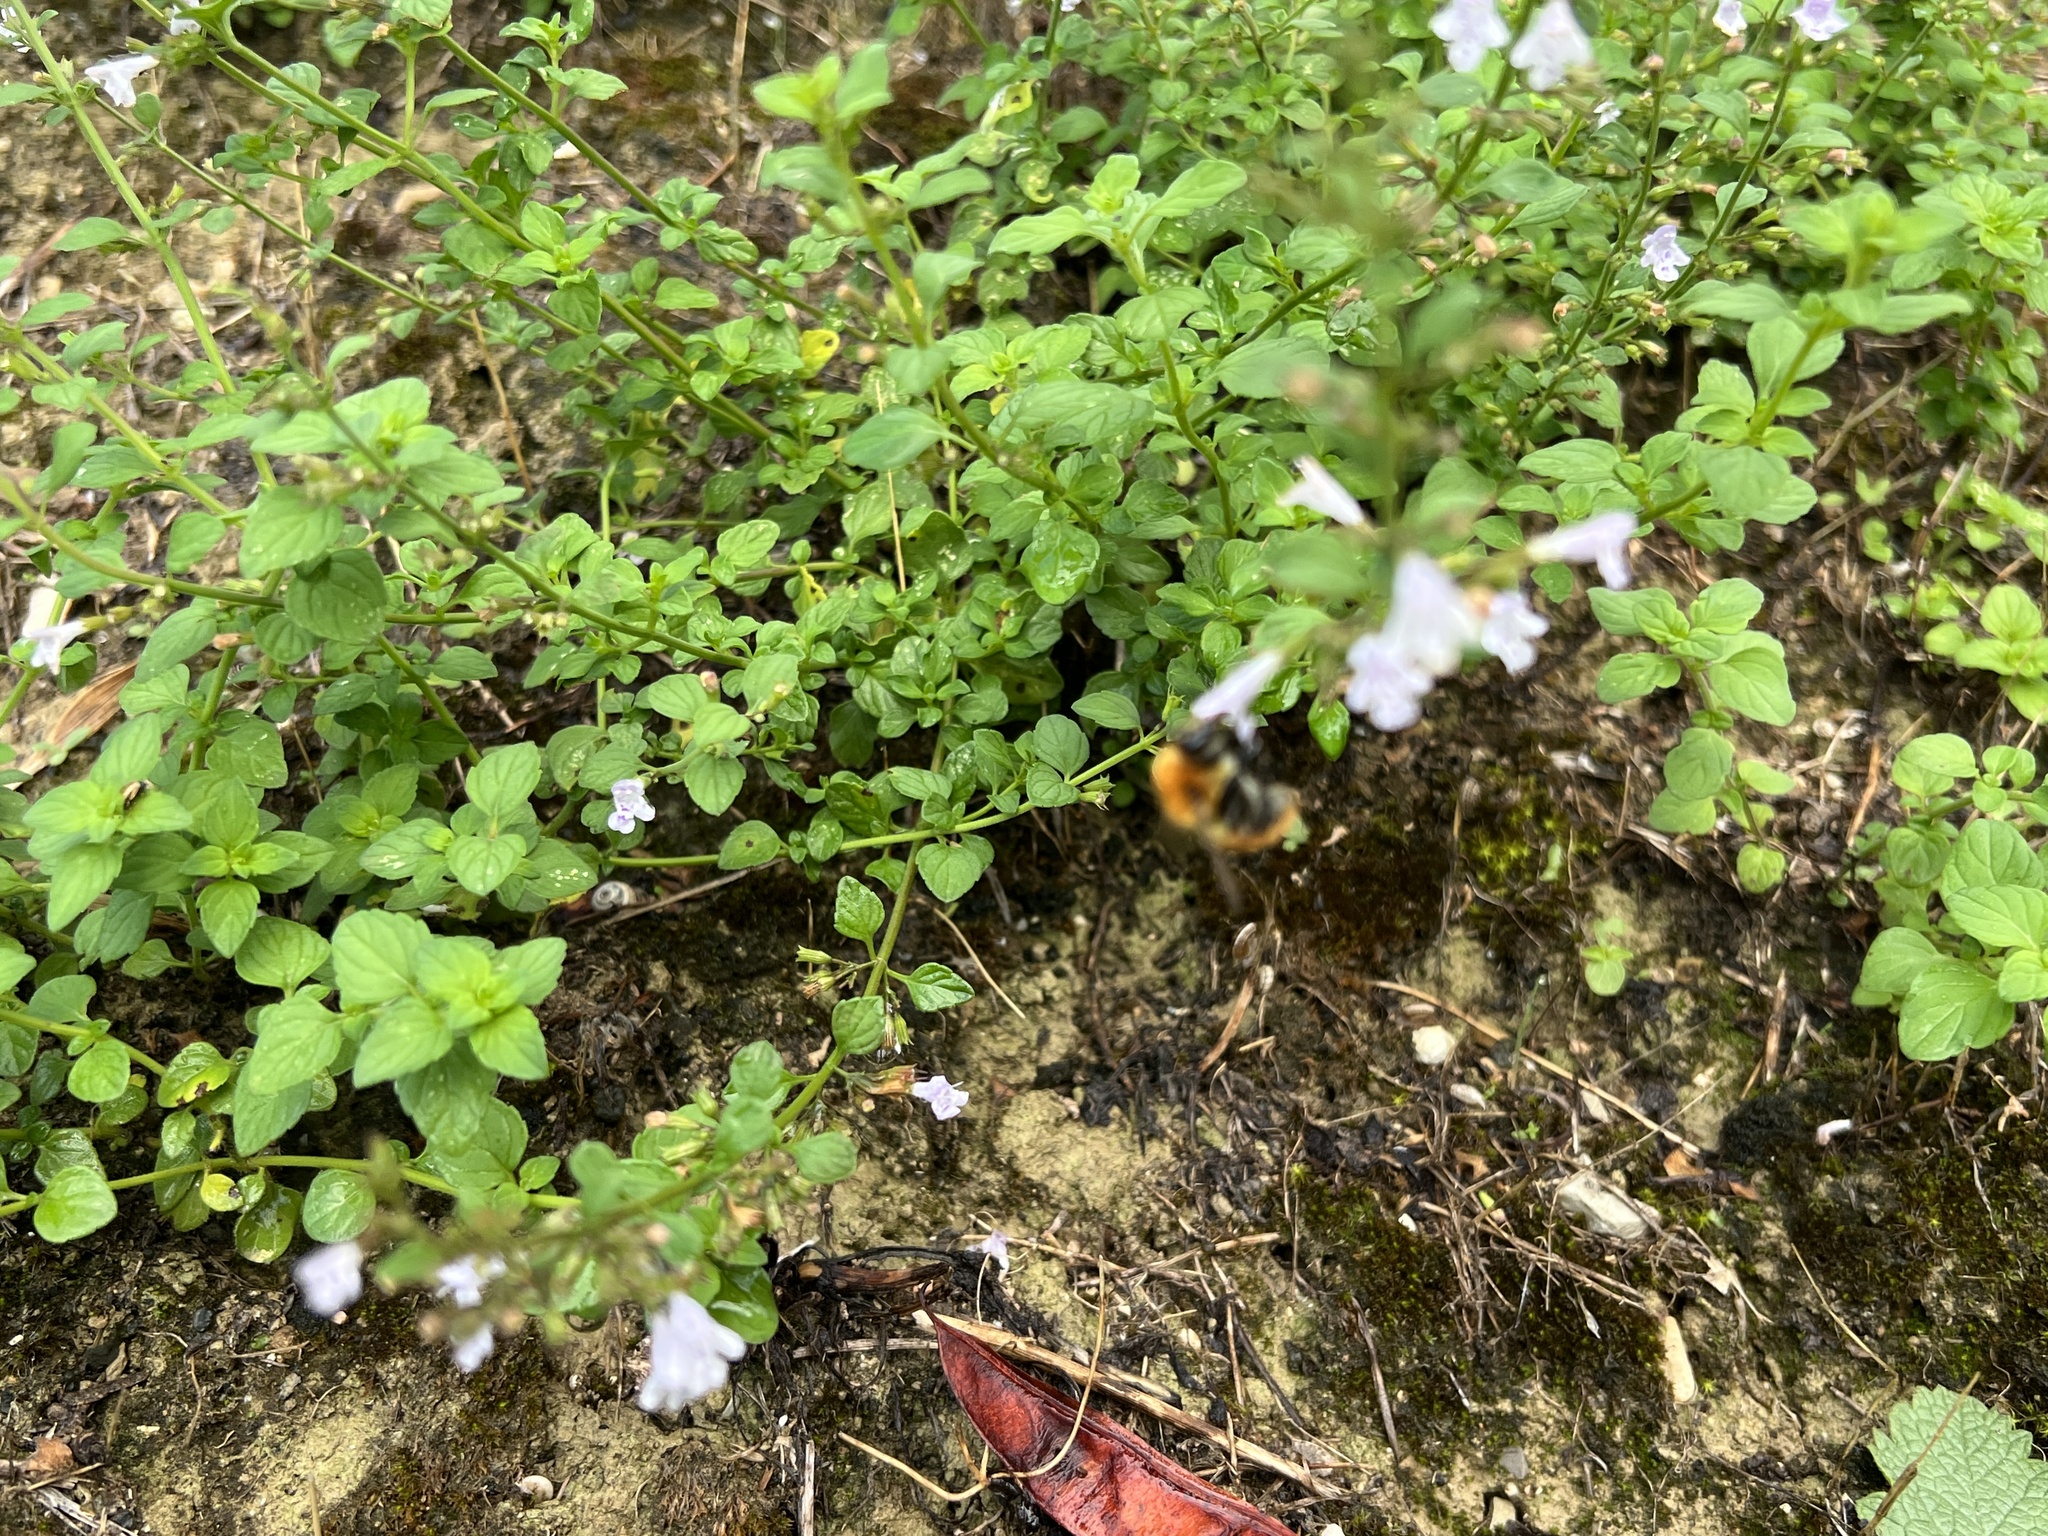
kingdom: Animalia
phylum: Arthropoda
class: Insecta
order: Hymenoptera
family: Apidae
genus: Bombus
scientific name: Bombus pascuorum
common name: Common carder bee
